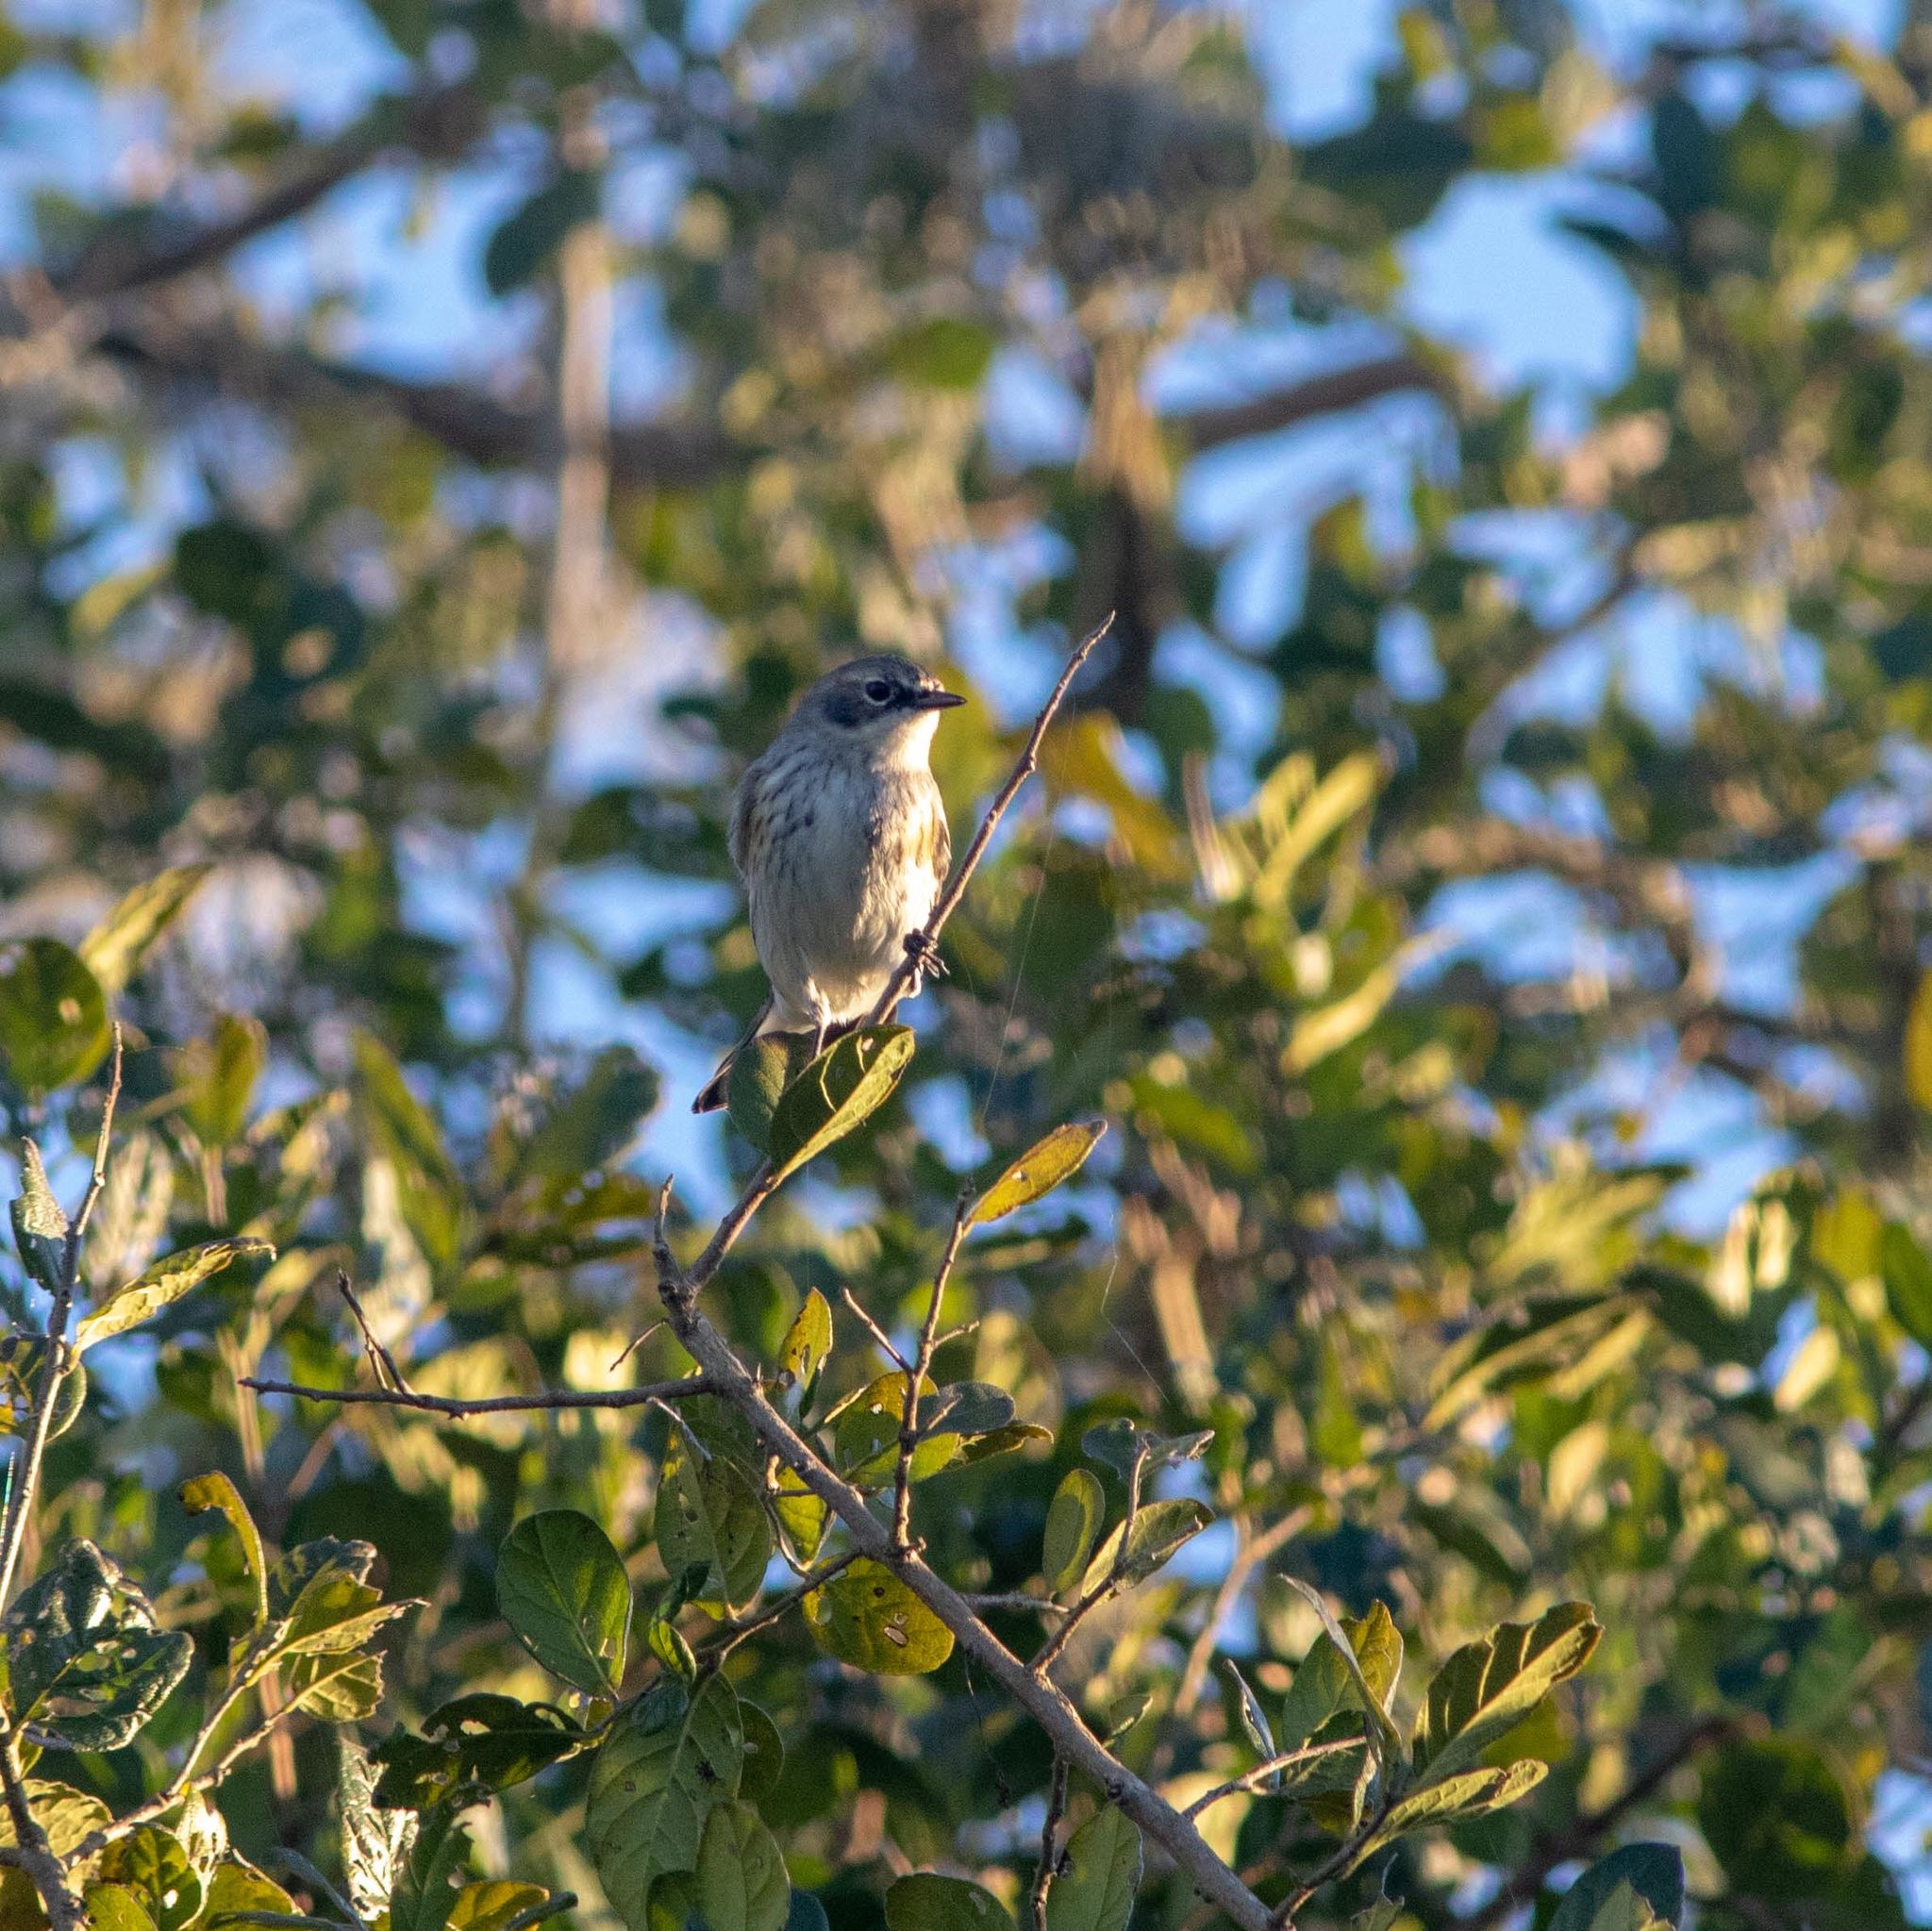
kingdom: Animalia
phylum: Chordata
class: Aves
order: Passeriformes
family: Parulidae
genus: Setophaga
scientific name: Setophaga coronata
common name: Myrtle warbler
